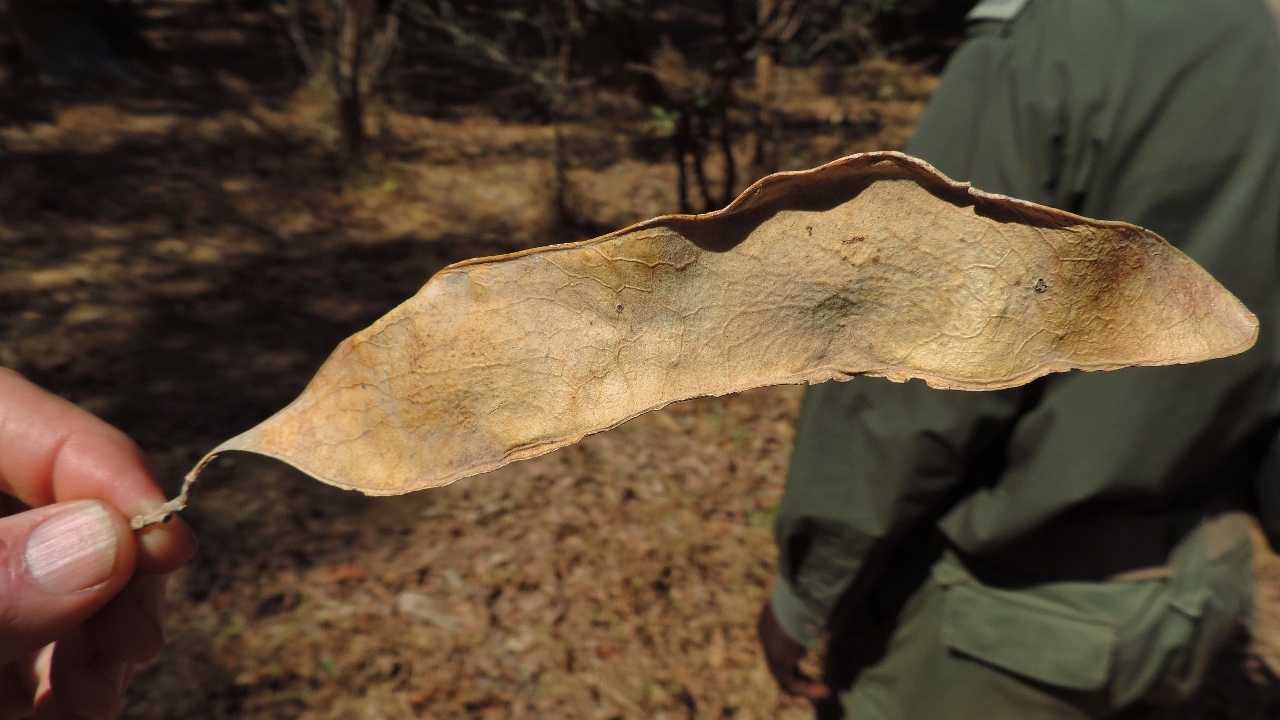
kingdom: Plantae
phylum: Tracheophyta
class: Magnoliopsida
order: Fabales
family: Fabaceae
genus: Aganope
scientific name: Aganope stuhlmannii
